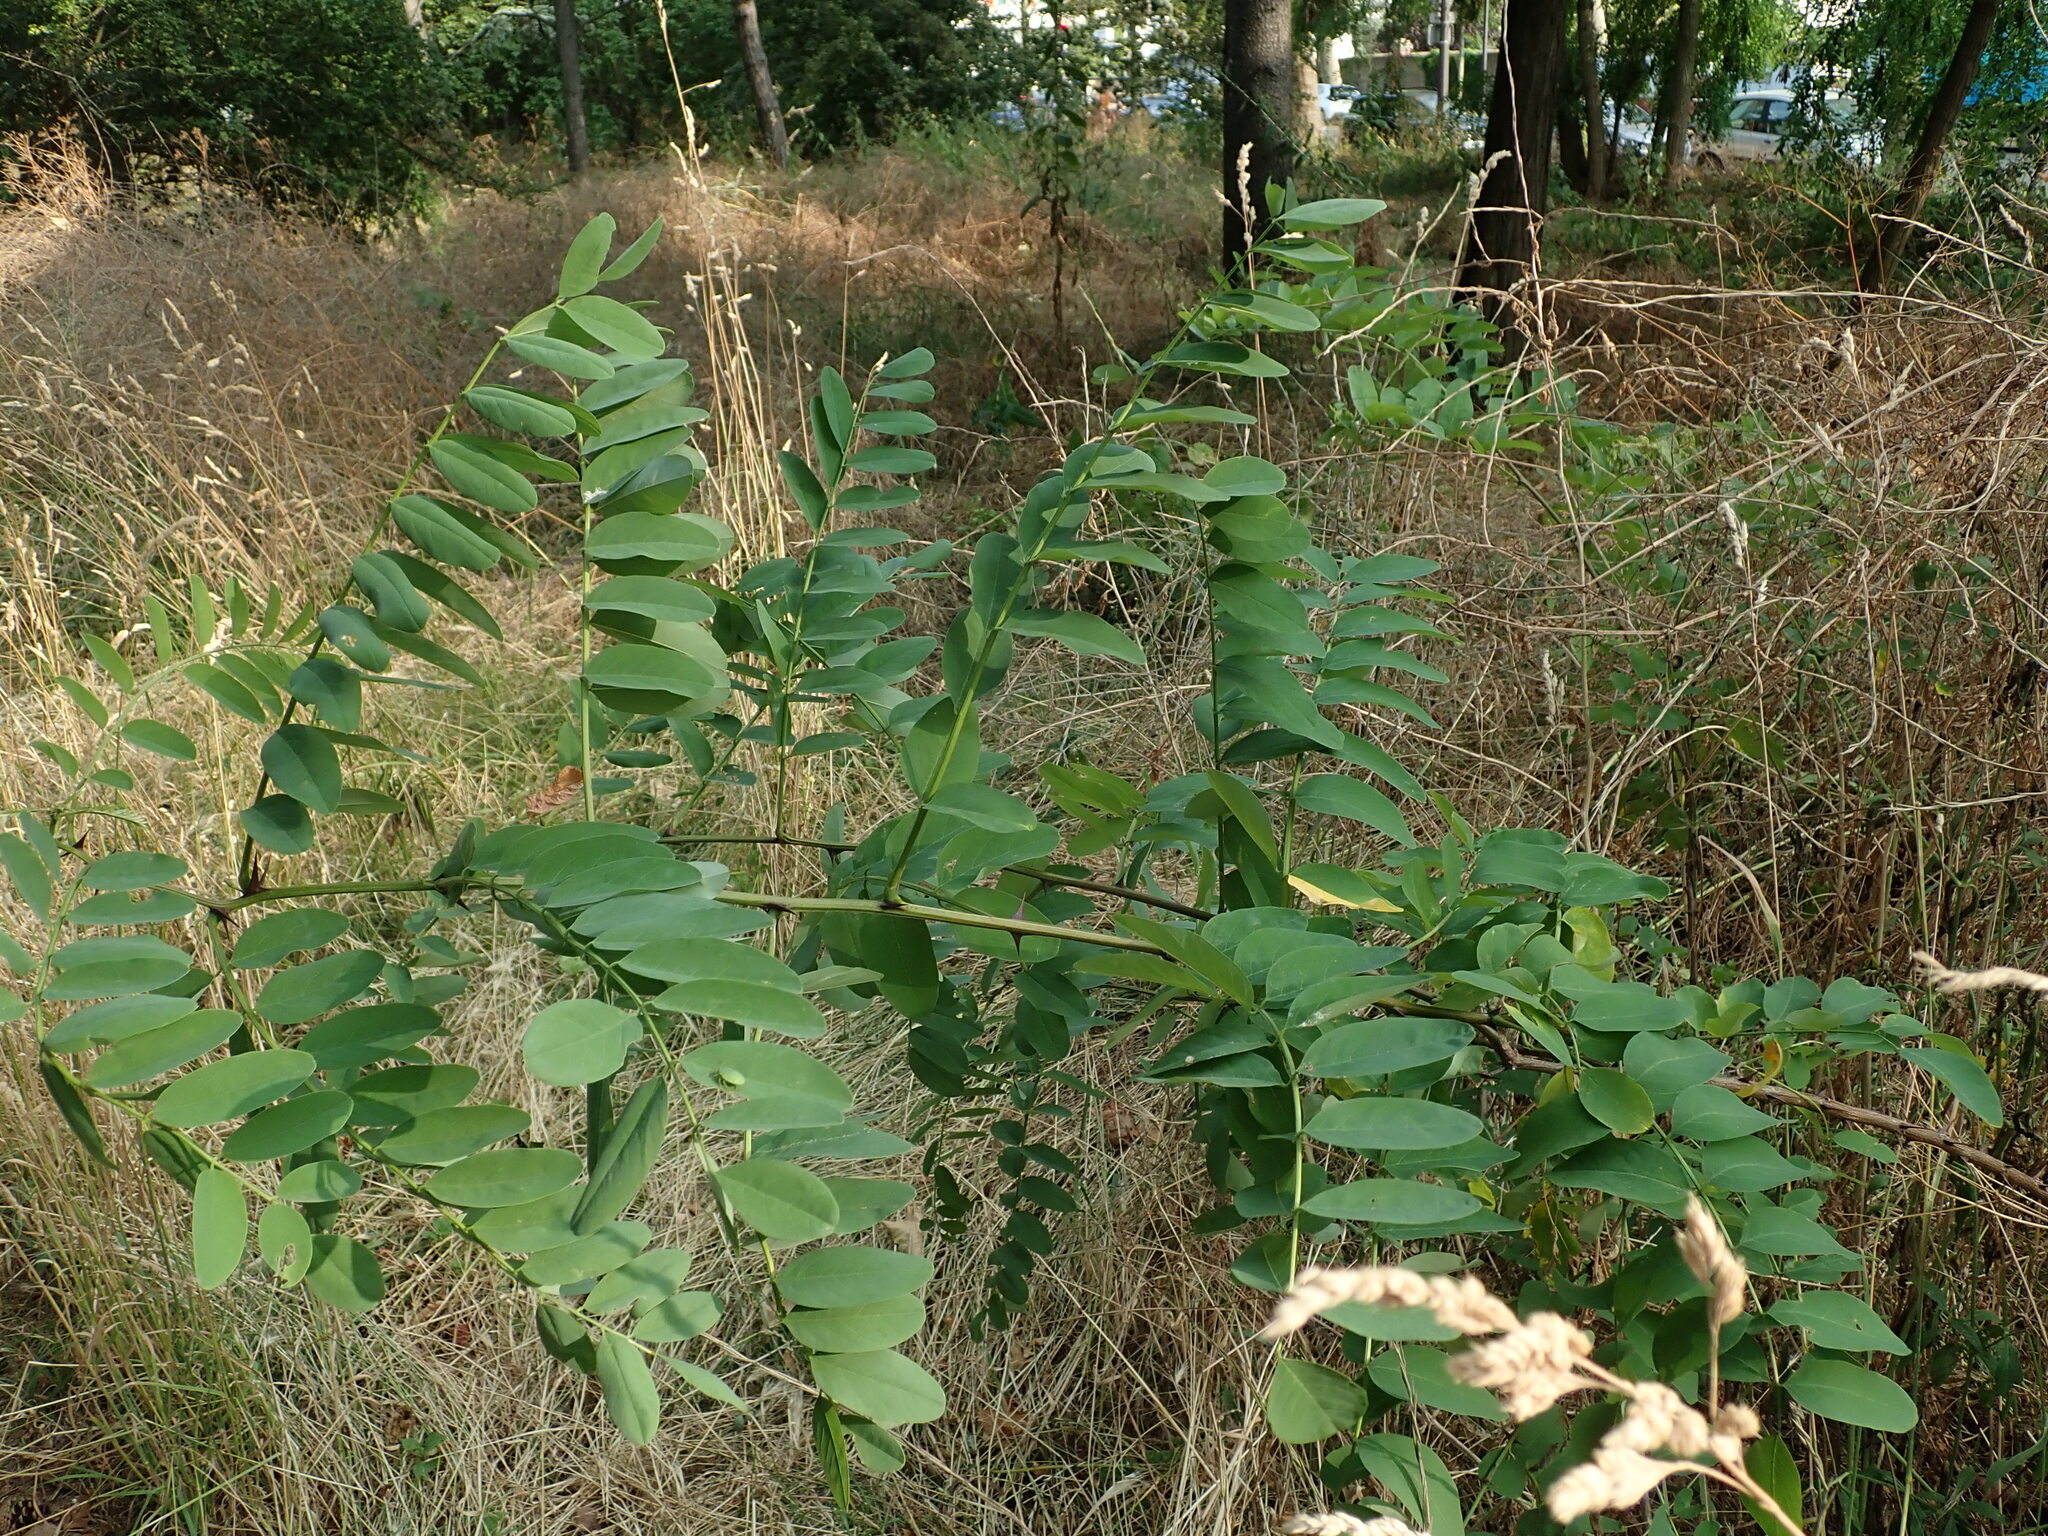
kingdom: Plantae
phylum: Tracheophyta
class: Magnoliopsida
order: Fabales
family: Fabaceae
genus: Robinia
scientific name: Robinia pseudoacacia
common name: Black locust
